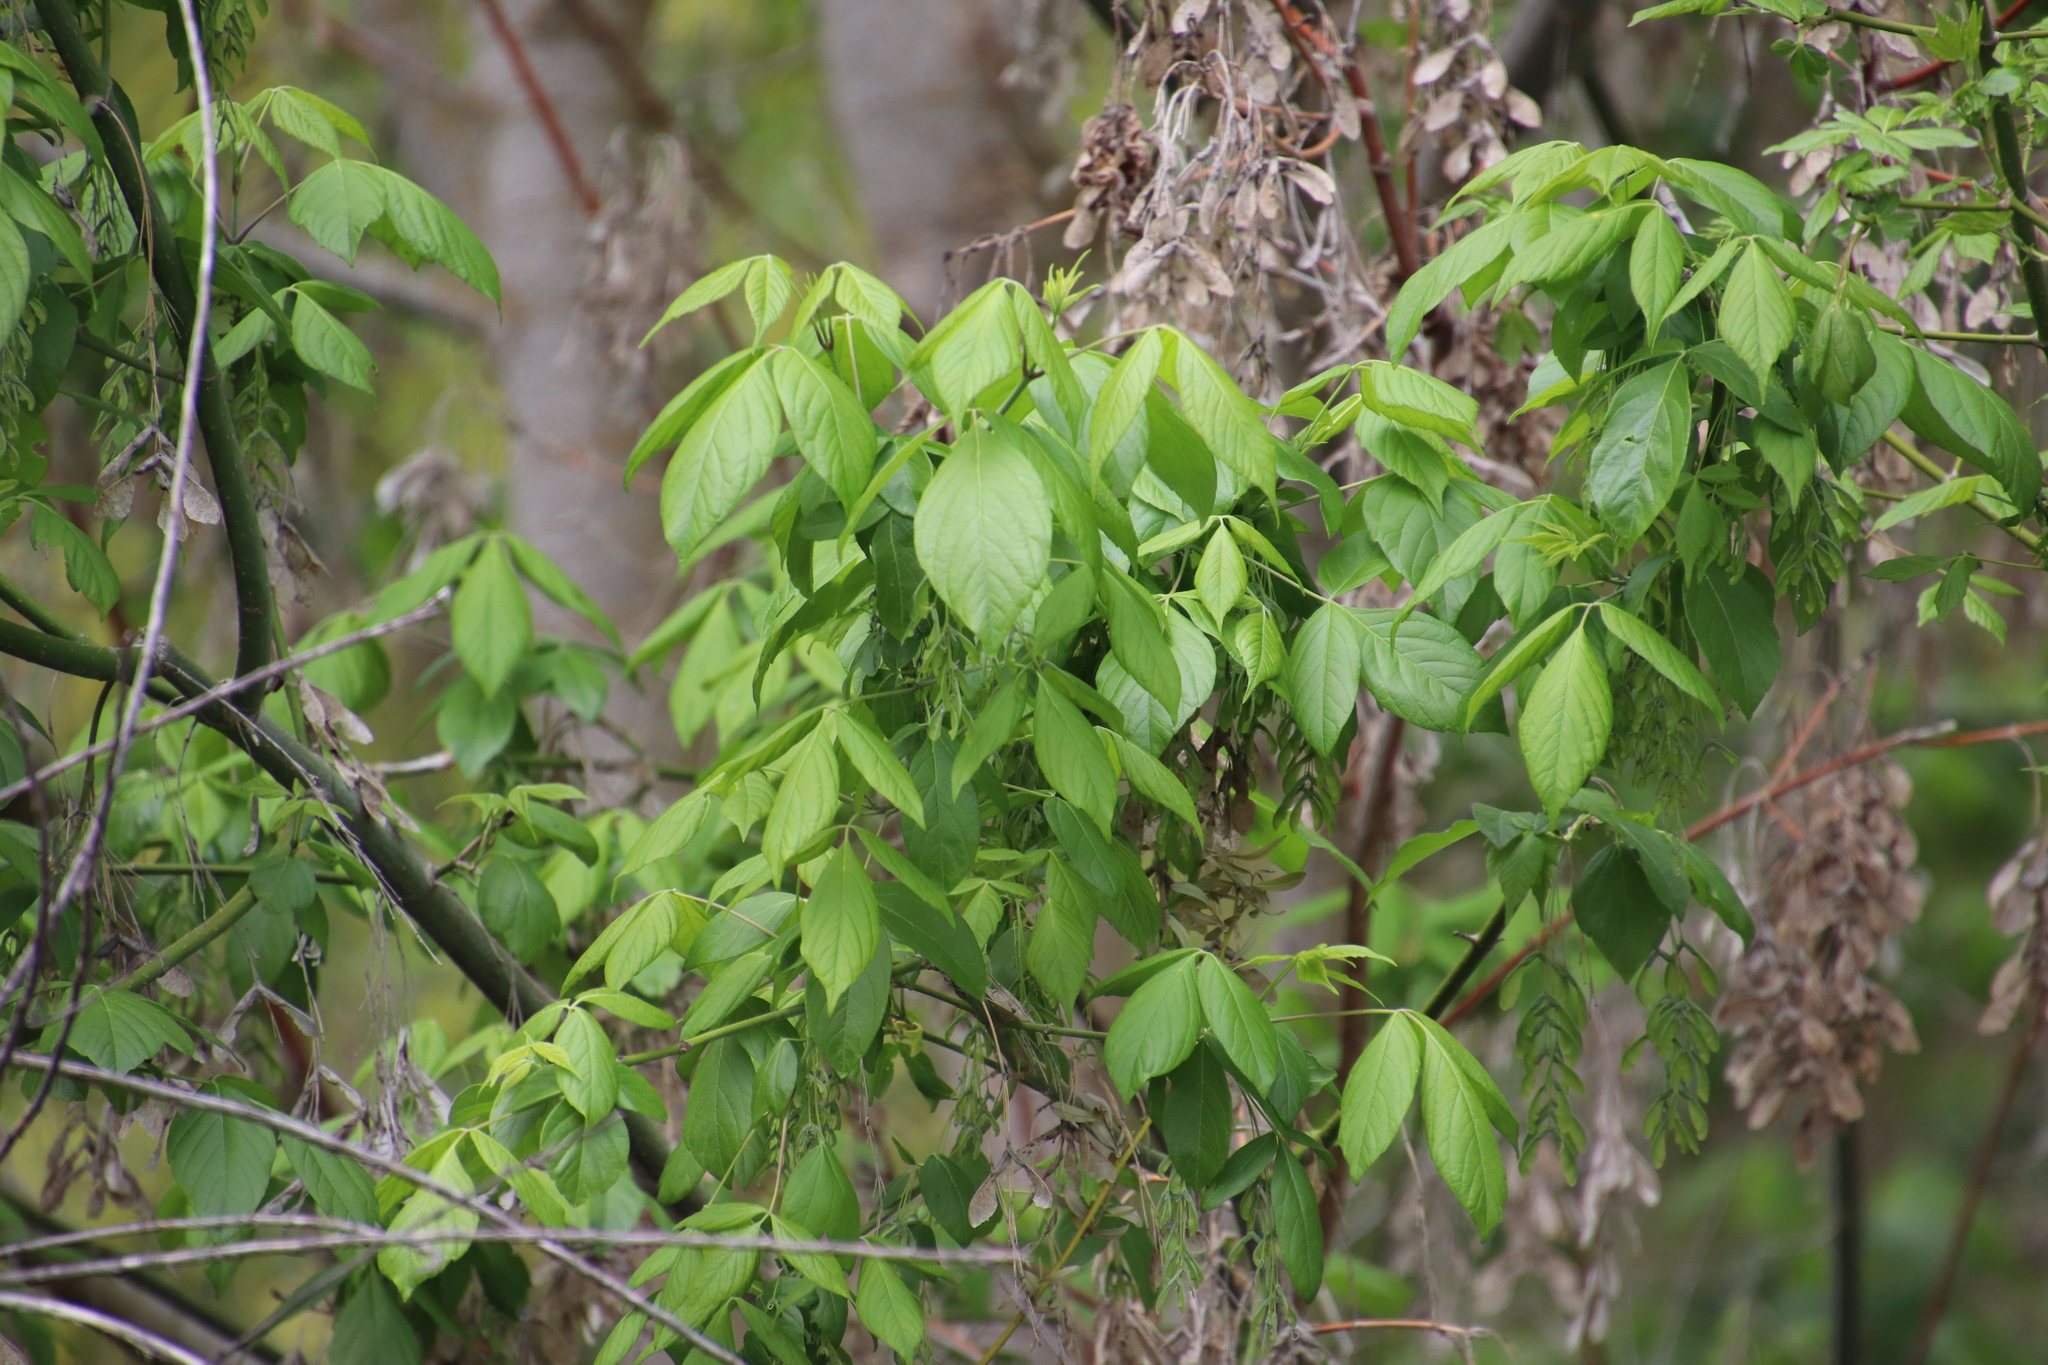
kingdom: Plantae
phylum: Tracheophyta
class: Magnoliopsida
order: Sapindales
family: Sapindaceae
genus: Acer
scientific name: Acer negundo
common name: Ashleaf maple
